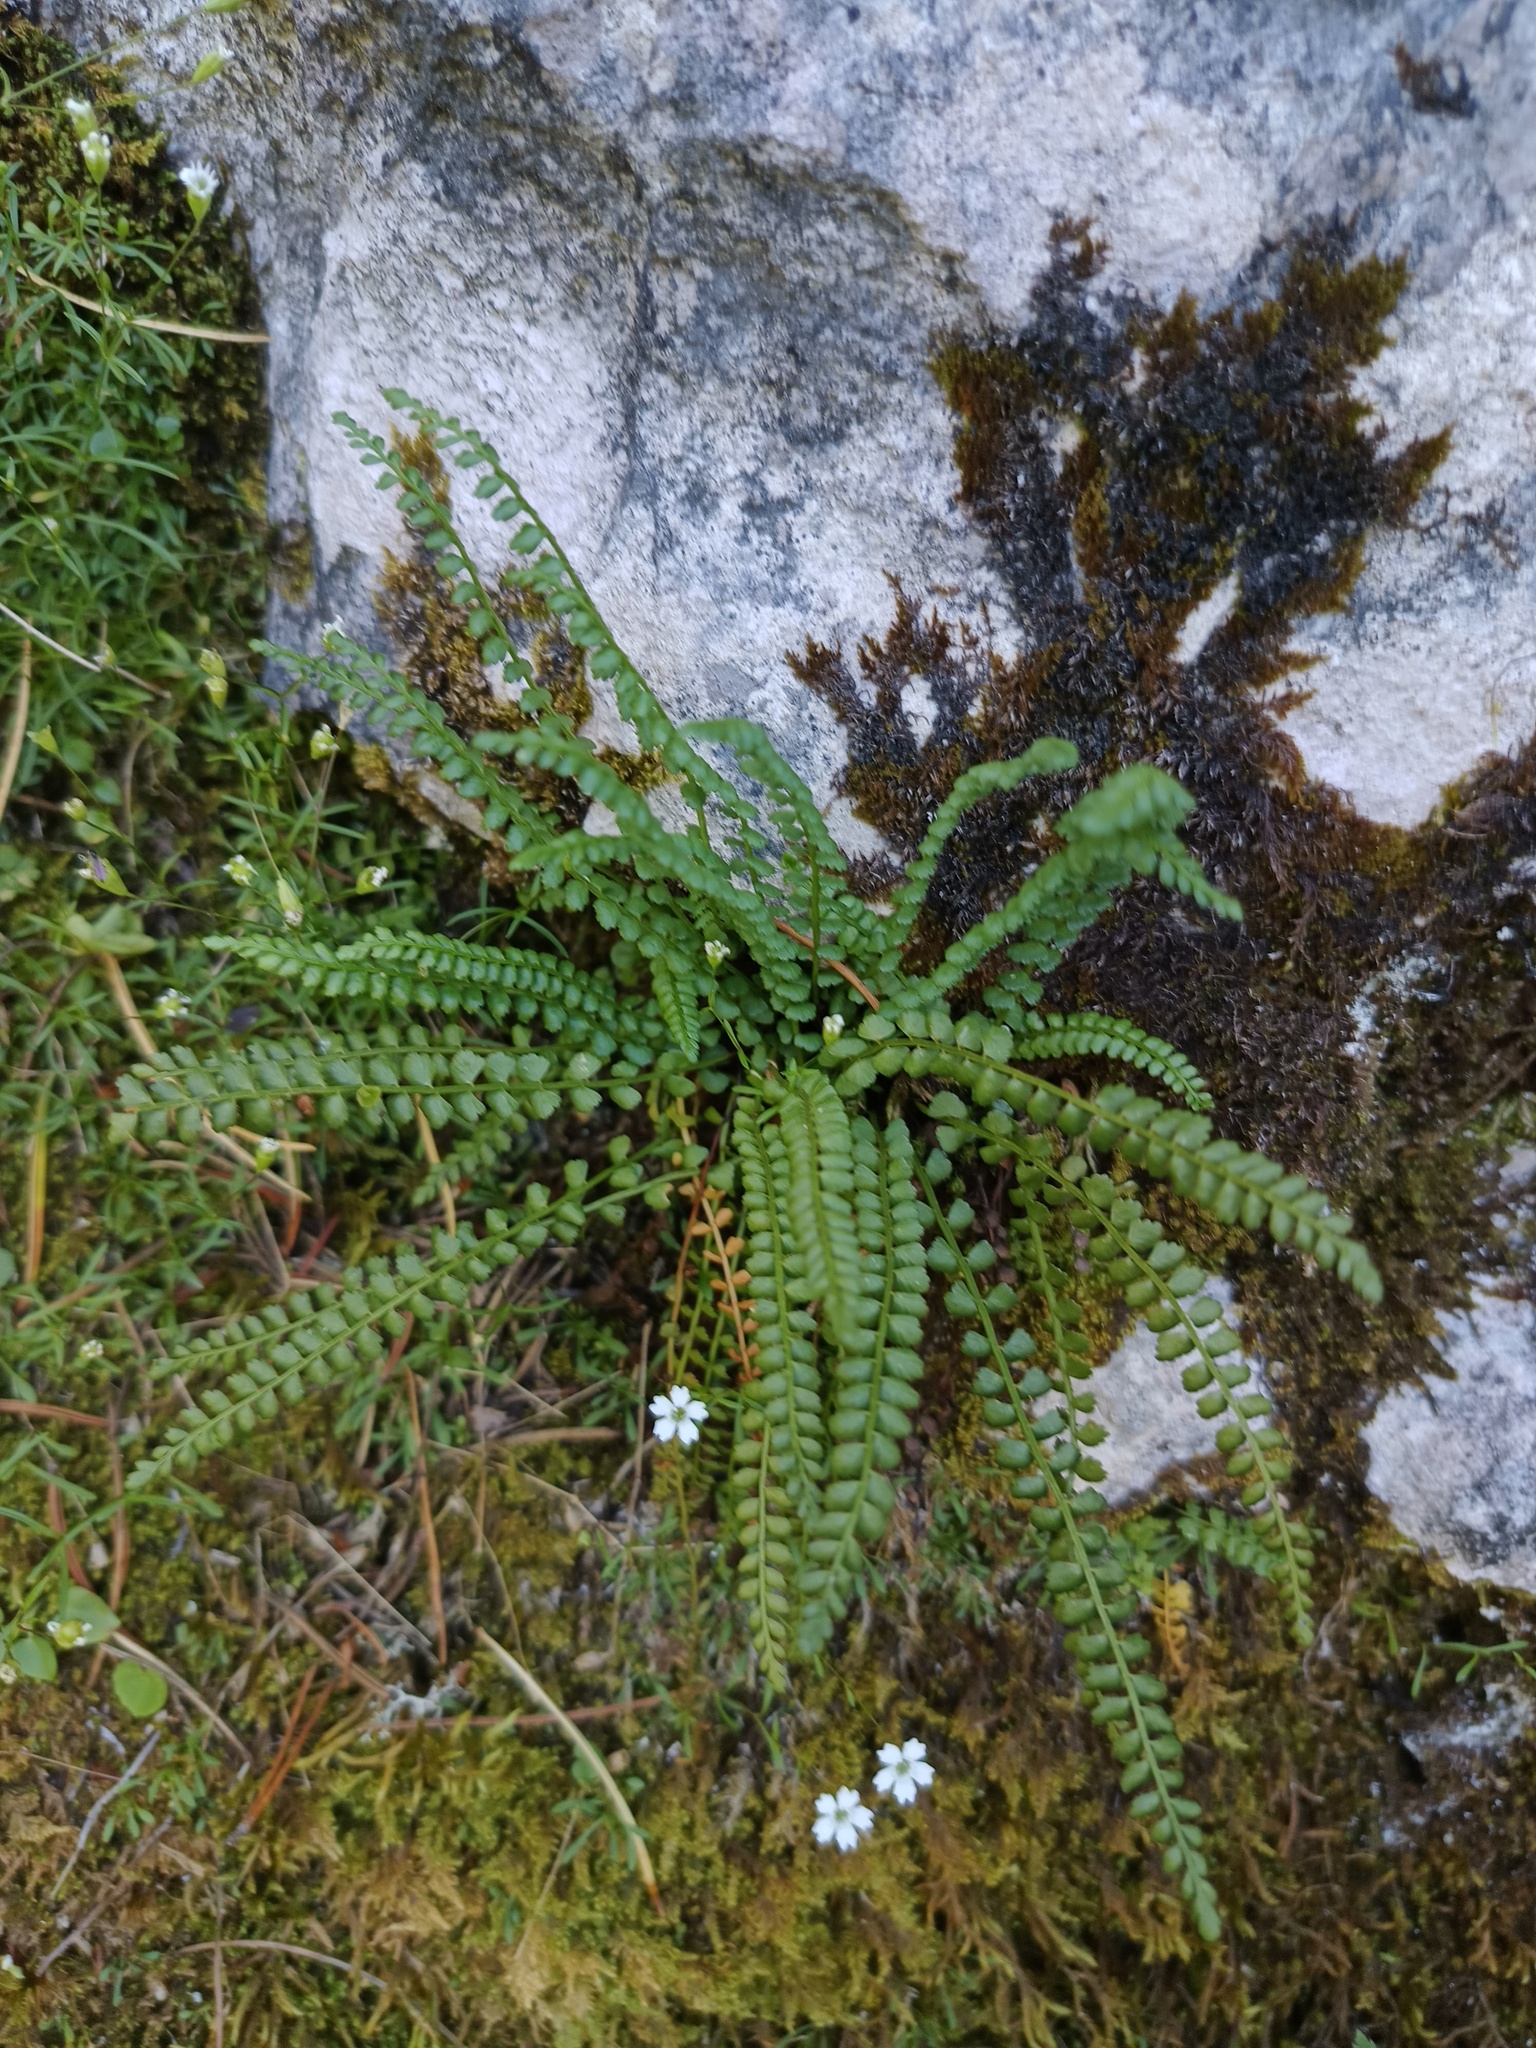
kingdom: Plantae
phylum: Tracheophyta
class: Polypodiopsida
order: Polypodiales
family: Aspleniaceae
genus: Asplenium
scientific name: Asplenium viride
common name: Green spleenwort
